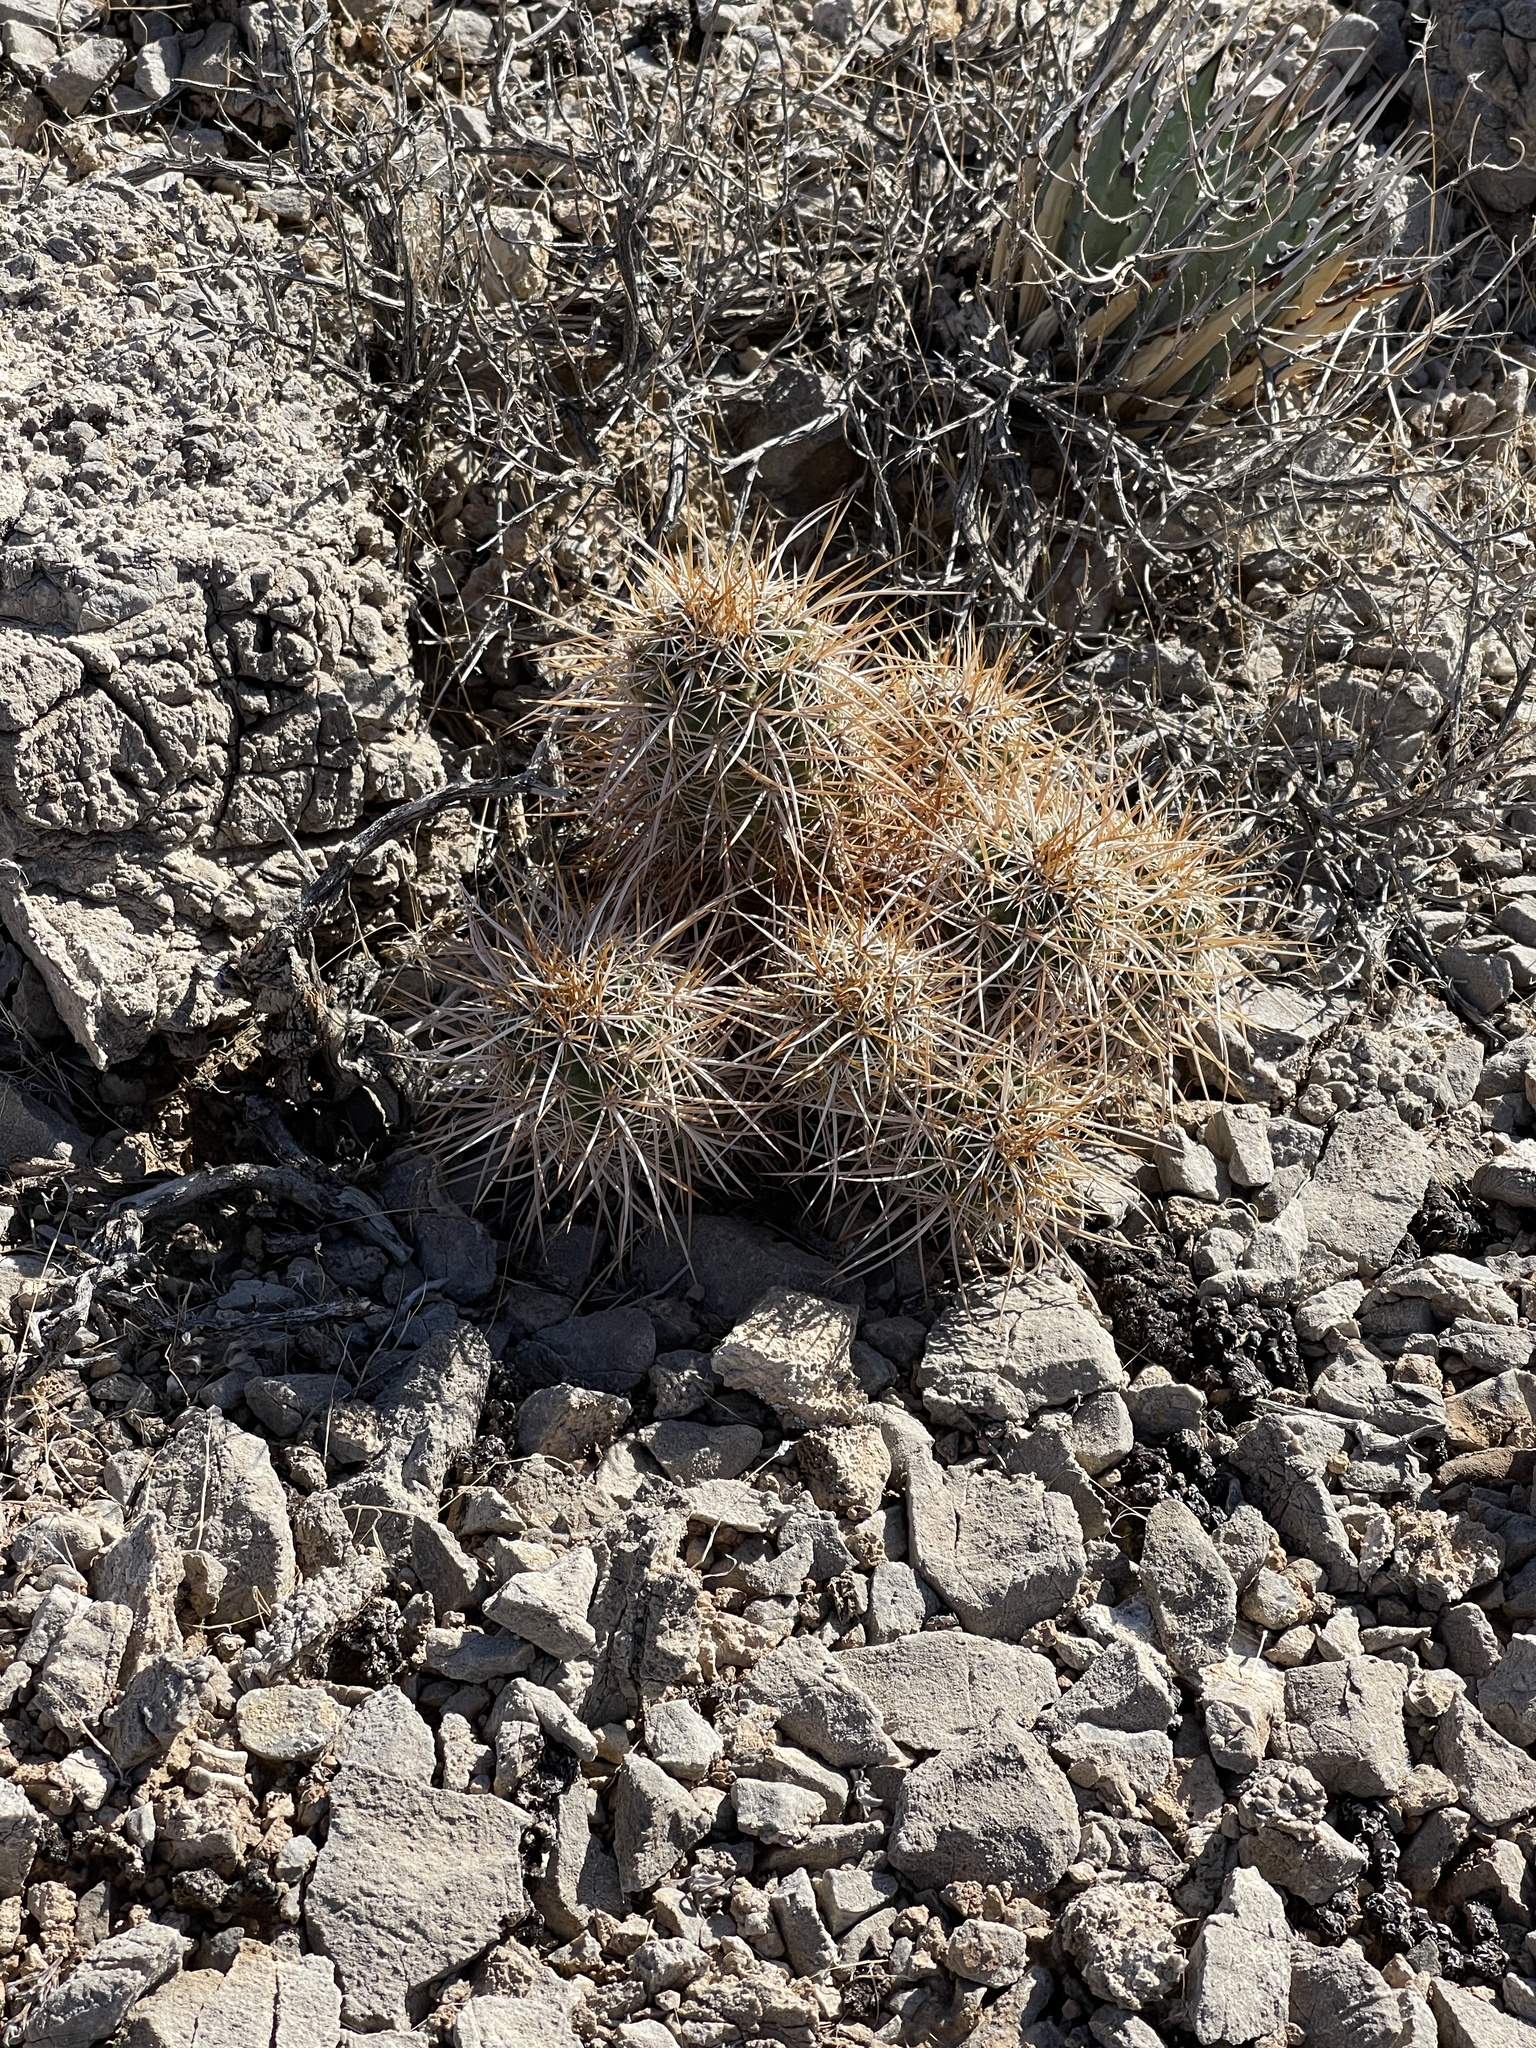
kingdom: Plantae
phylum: Tracheophyta
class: Magnoliopsida
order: Caryophyllales
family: Cactaceae
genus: Echinocereus
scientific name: Echinocereus engelmannii
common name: Engelmann's hedgehog cactus
